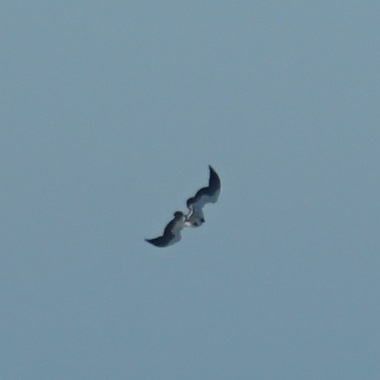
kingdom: Animalia
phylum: Chordata
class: Aves
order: Accipitriformes
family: Accipitridae
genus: Haliaeetus
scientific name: Haliaeetus leucogaster
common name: White-bellied sea eagle
